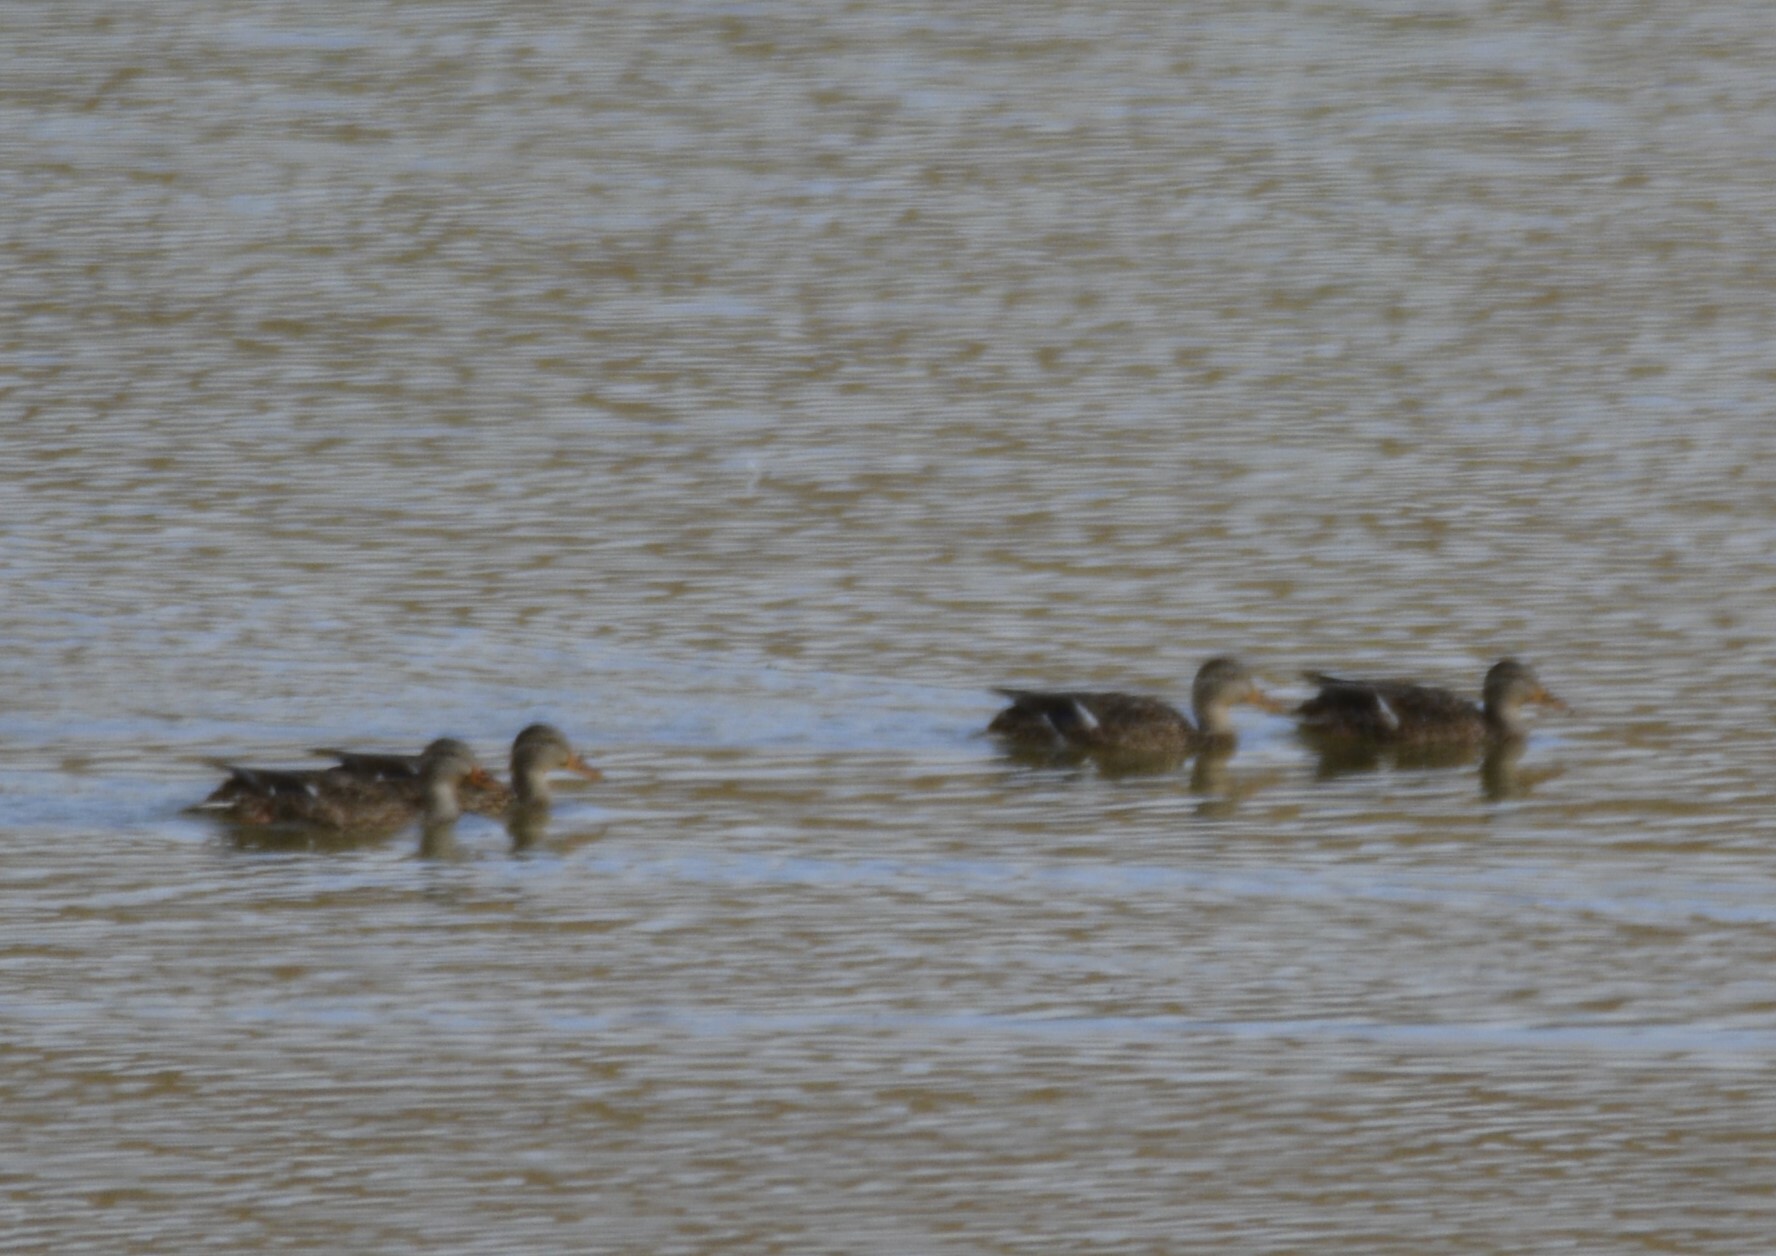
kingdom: Animalia
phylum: Chordata
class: Aves
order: Anseriformes
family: Anatidae
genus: Anas
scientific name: Anas platyrhynchos
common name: Mallard
